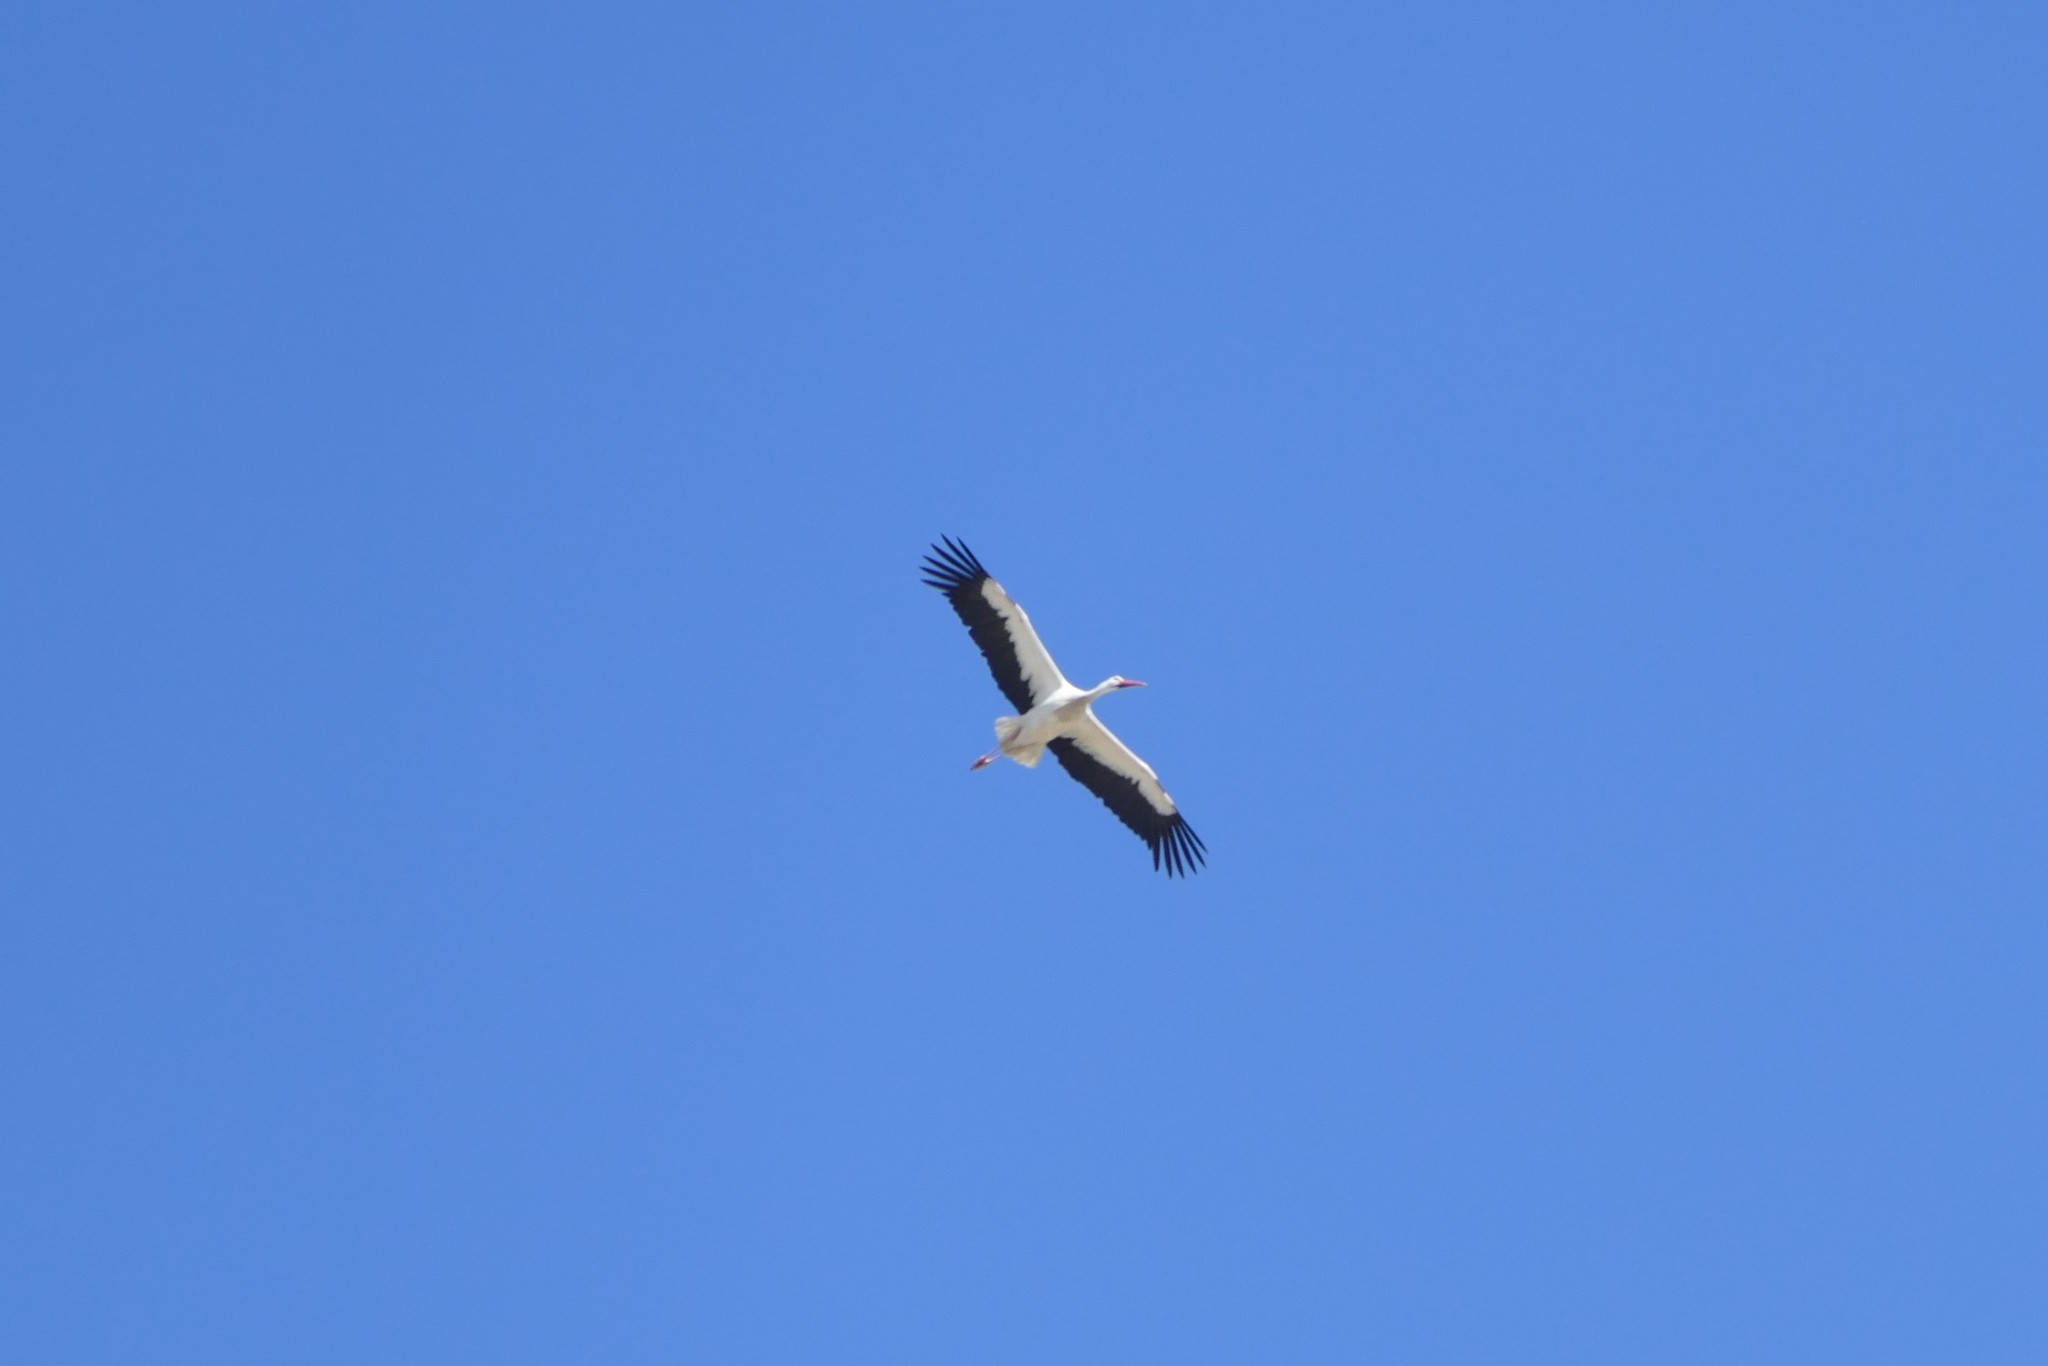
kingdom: Animalia
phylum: Chordata
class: Aves
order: Ciconiiformes
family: Ciconiidae
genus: Ciconia
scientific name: Ciconia ciconia
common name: White stork
